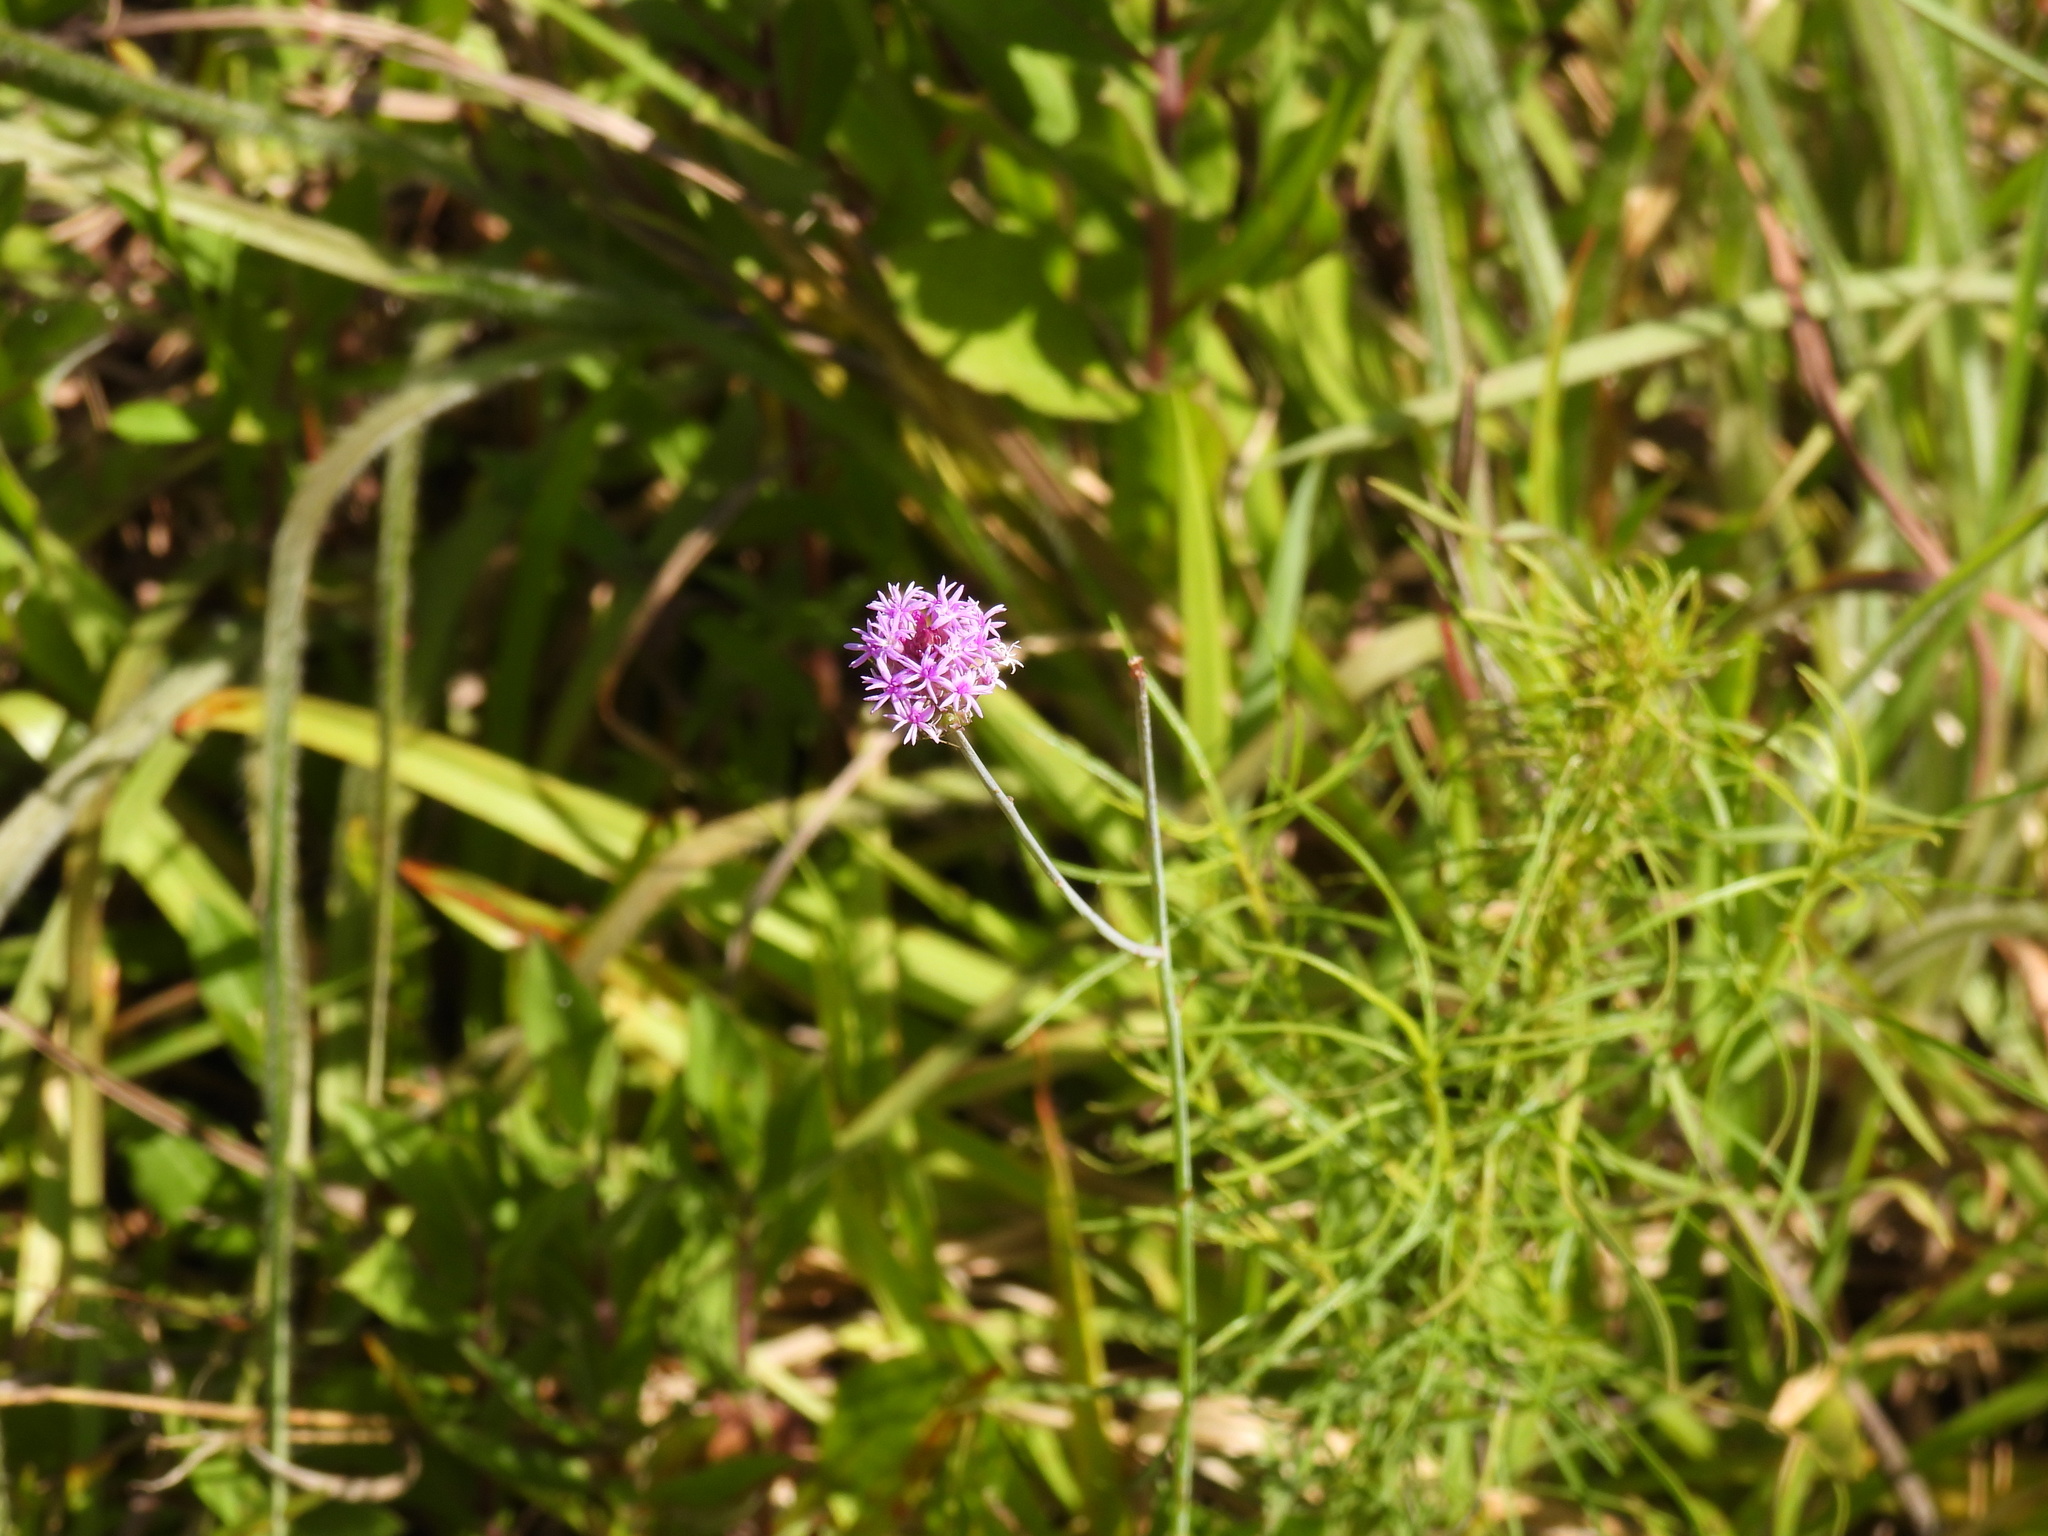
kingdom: Plantae
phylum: Tracheophyta
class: Magnoliopsida
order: Fabales
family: Polygalaceae
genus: Polygala
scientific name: Polygala incarnata
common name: Pink milkwort
